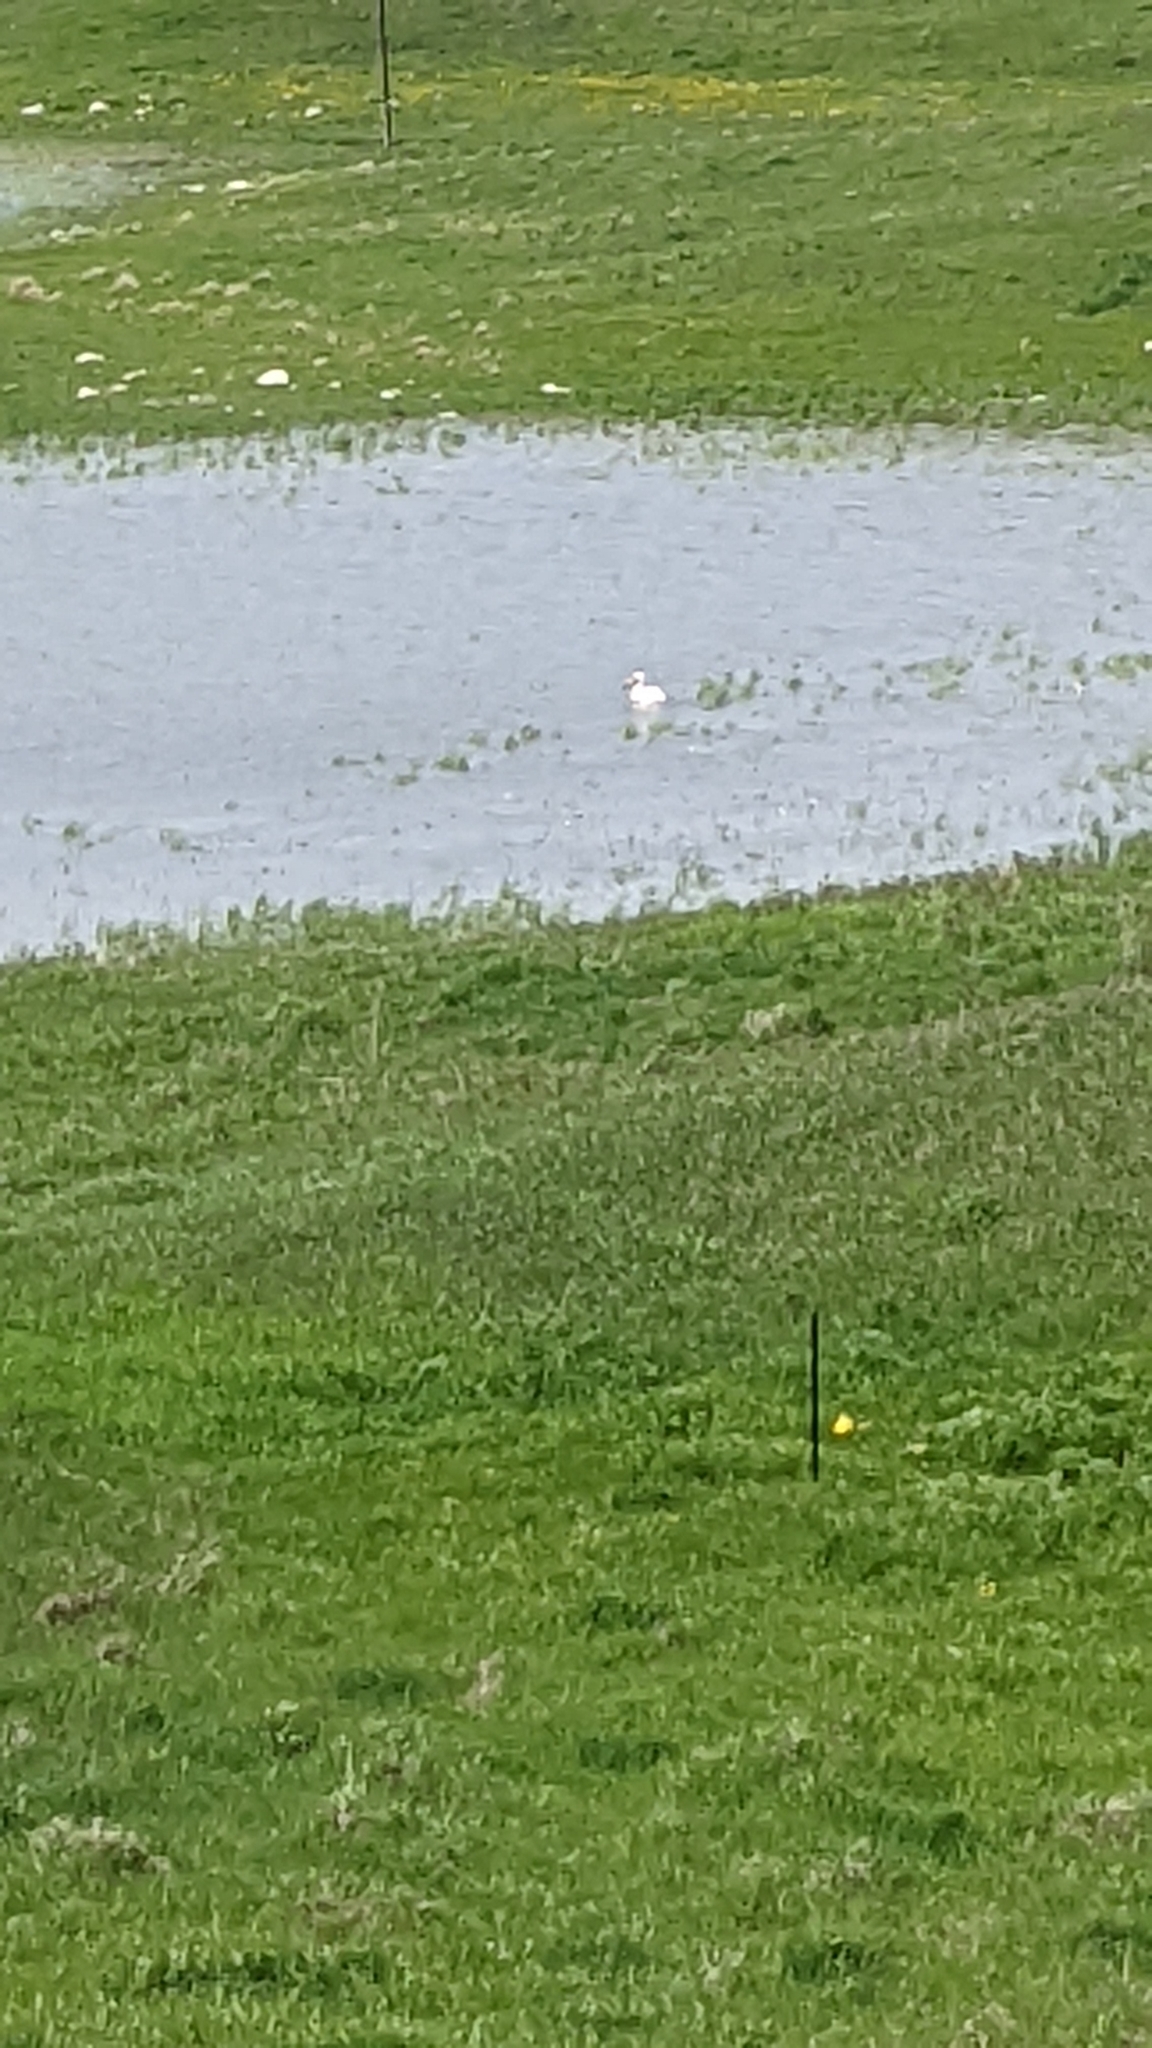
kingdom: Animalia
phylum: Chordata
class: Aves
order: Pelecaniformes
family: Pelecanidae
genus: Pelecanus
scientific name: Pelecanus erythrorhynchos
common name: American white pelican
